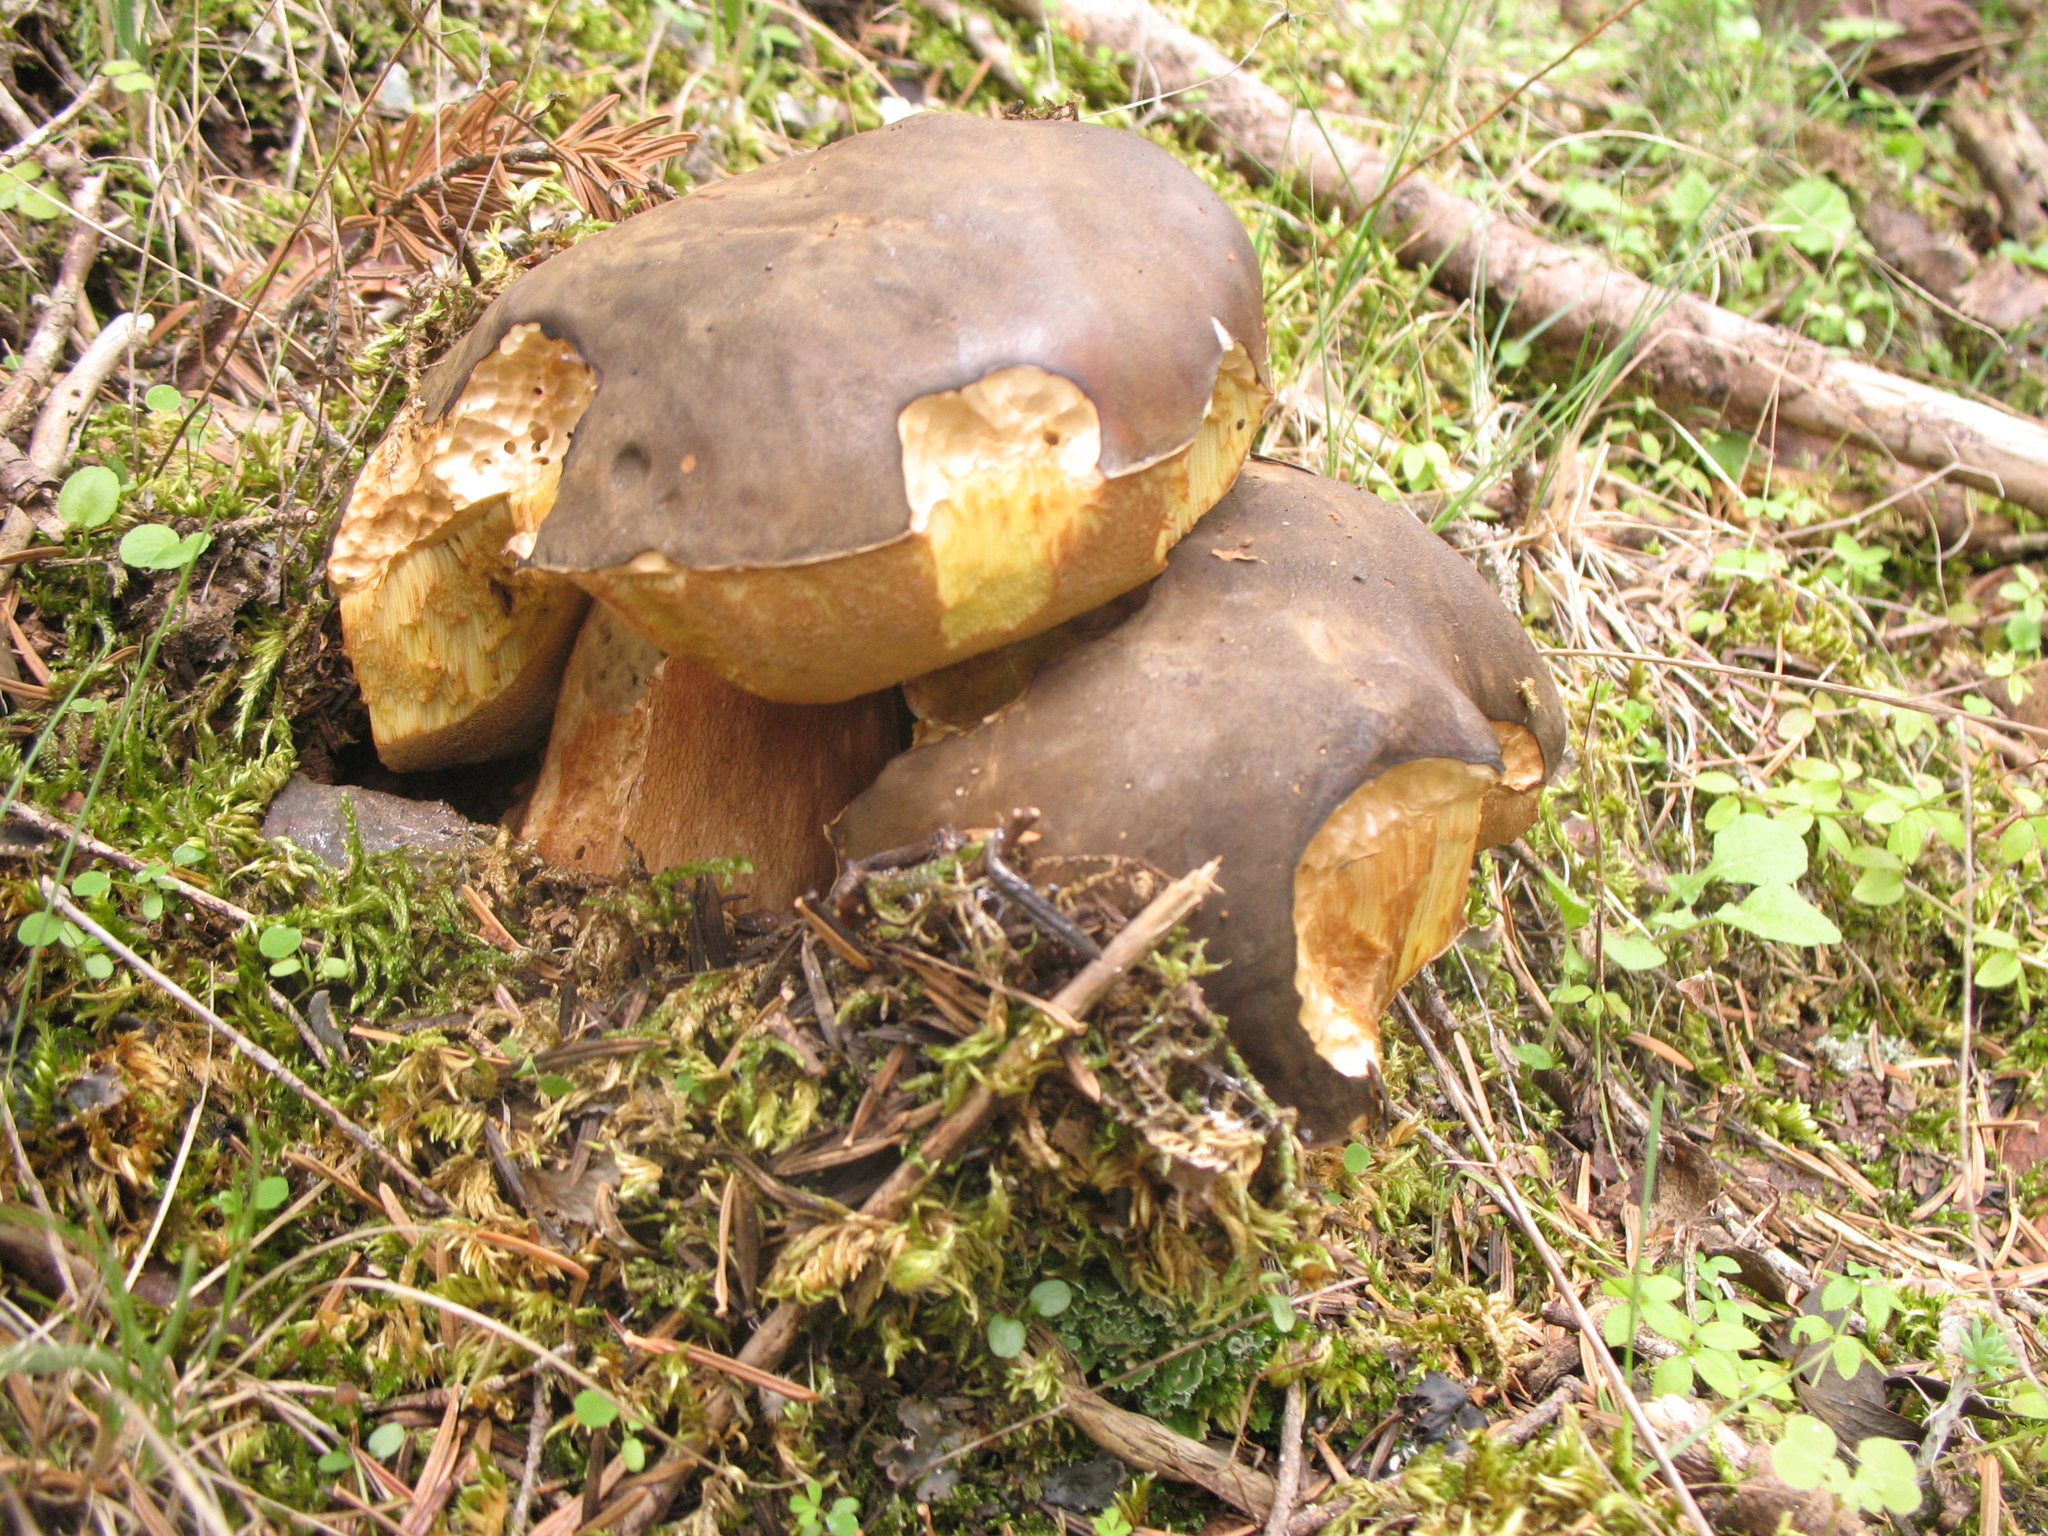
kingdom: Fungi
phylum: Basidiomycota
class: Agaricomycetes
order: Boletales
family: Boletaceae
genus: Boletus
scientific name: Boletus aereus
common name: Bronze bolete
